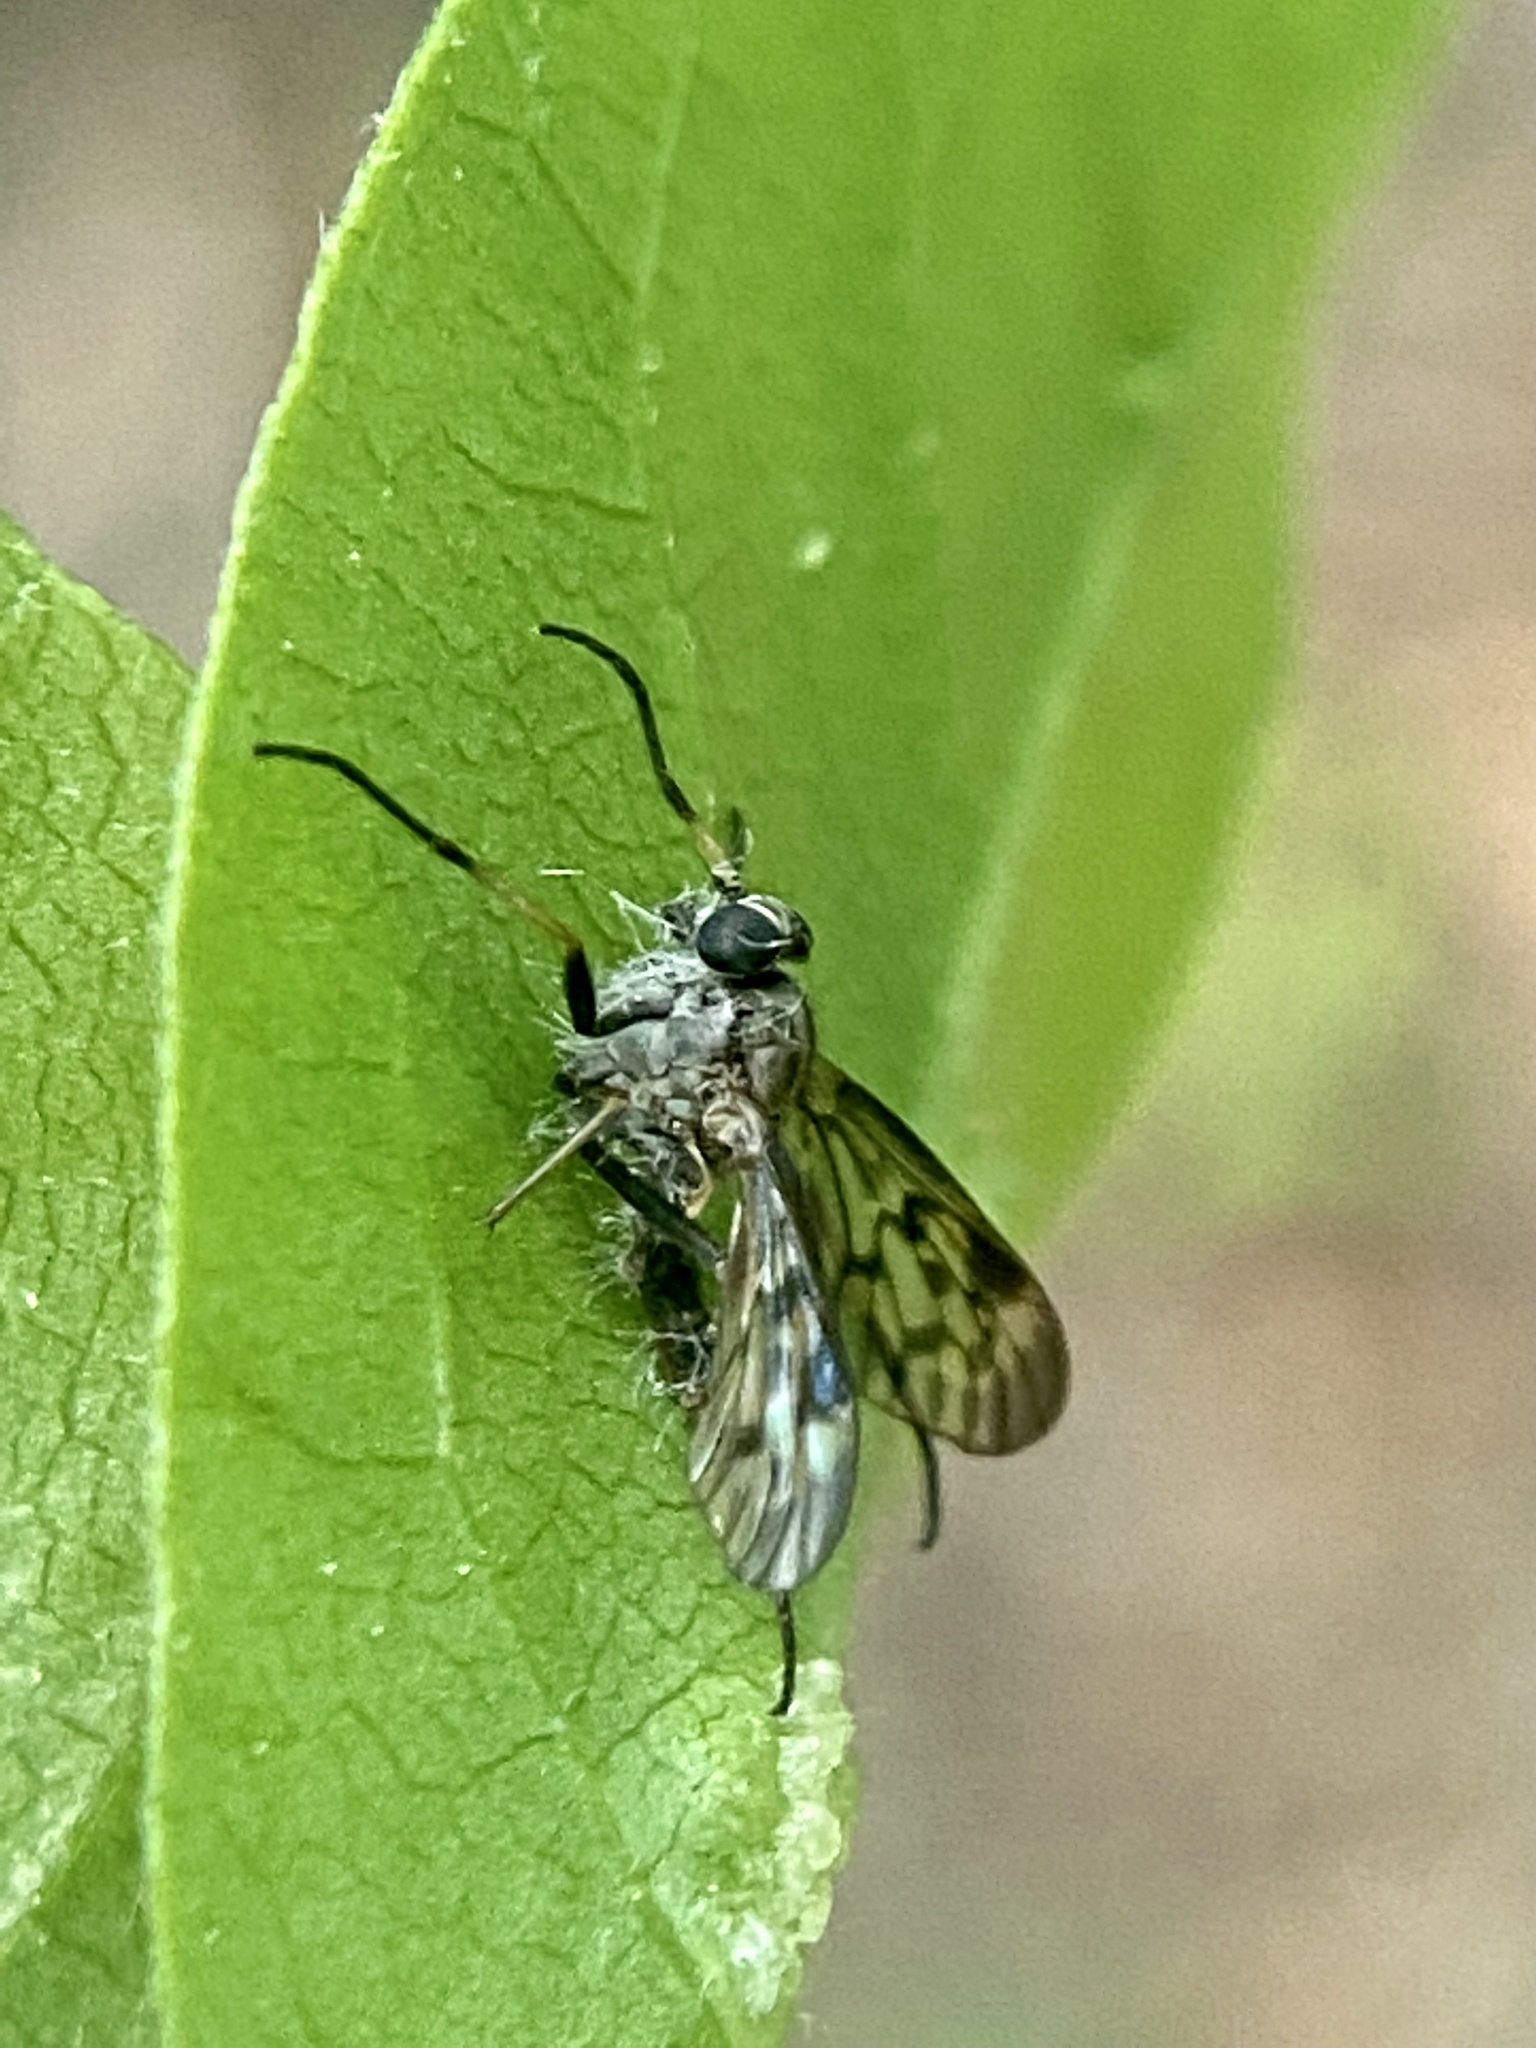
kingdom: Fungi
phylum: Entomophthoromycota
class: Entomophthoromycetes
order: Entomophthorales
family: Entomophthoraceae
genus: Furia
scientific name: Furia ithacensis
